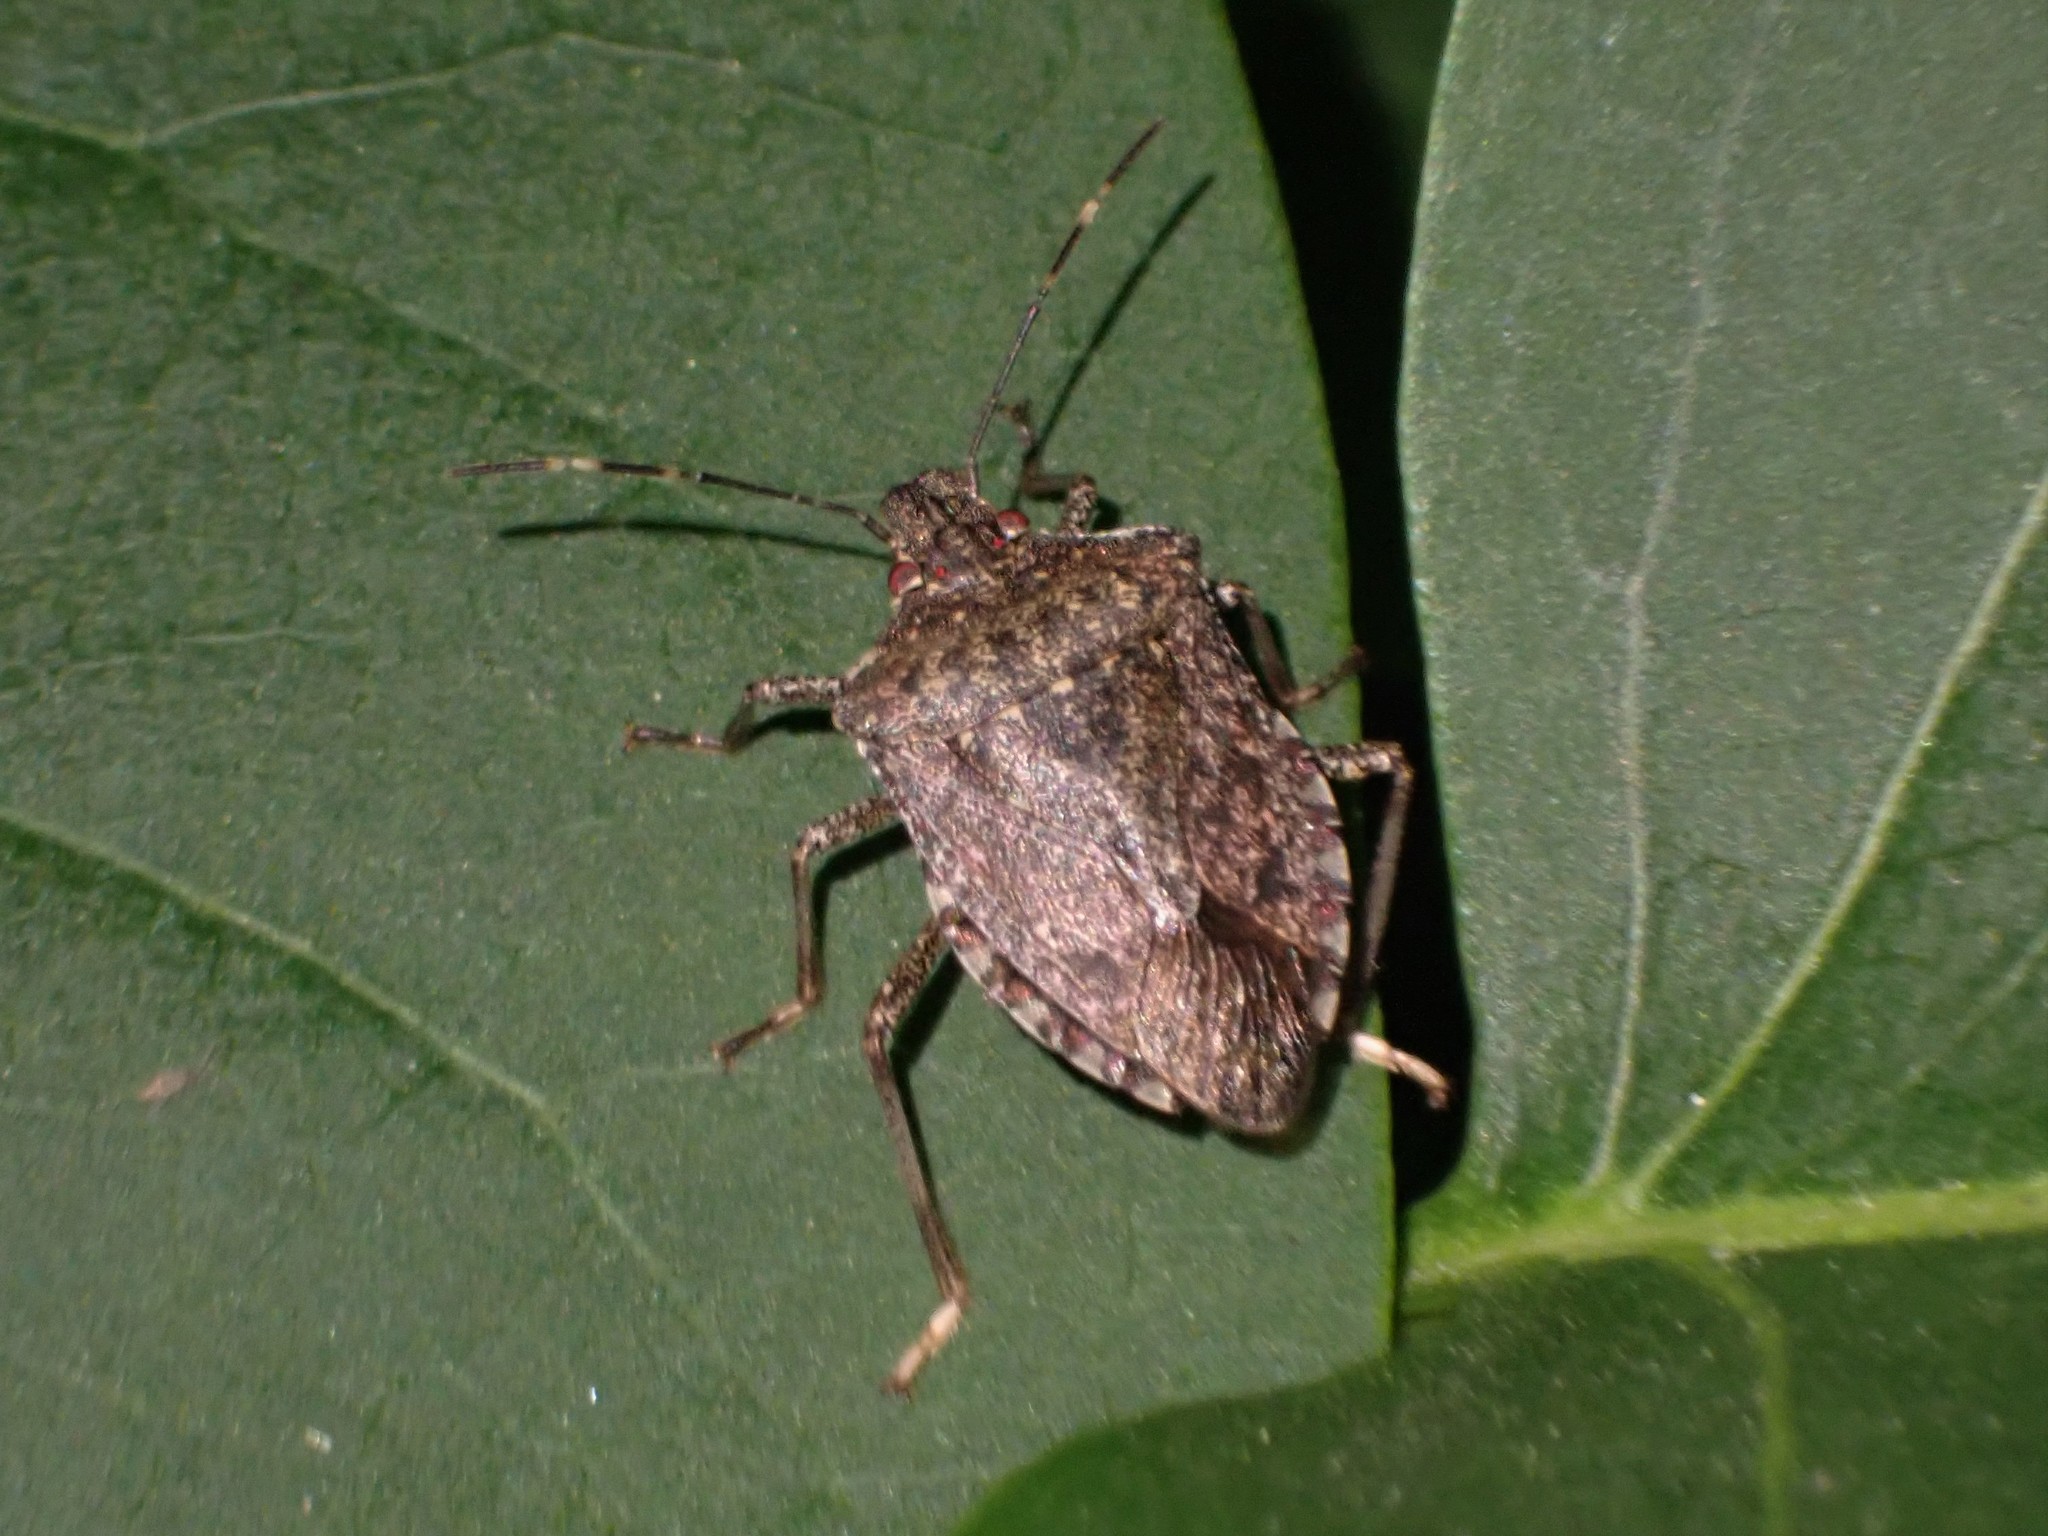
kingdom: Animalia
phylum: Arthropoda
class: Insecta
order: Hemiptera
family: Pentatomidae
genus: Halyomorpha
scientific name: Halyomorpha halys
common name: Brown marmorated stink bug
